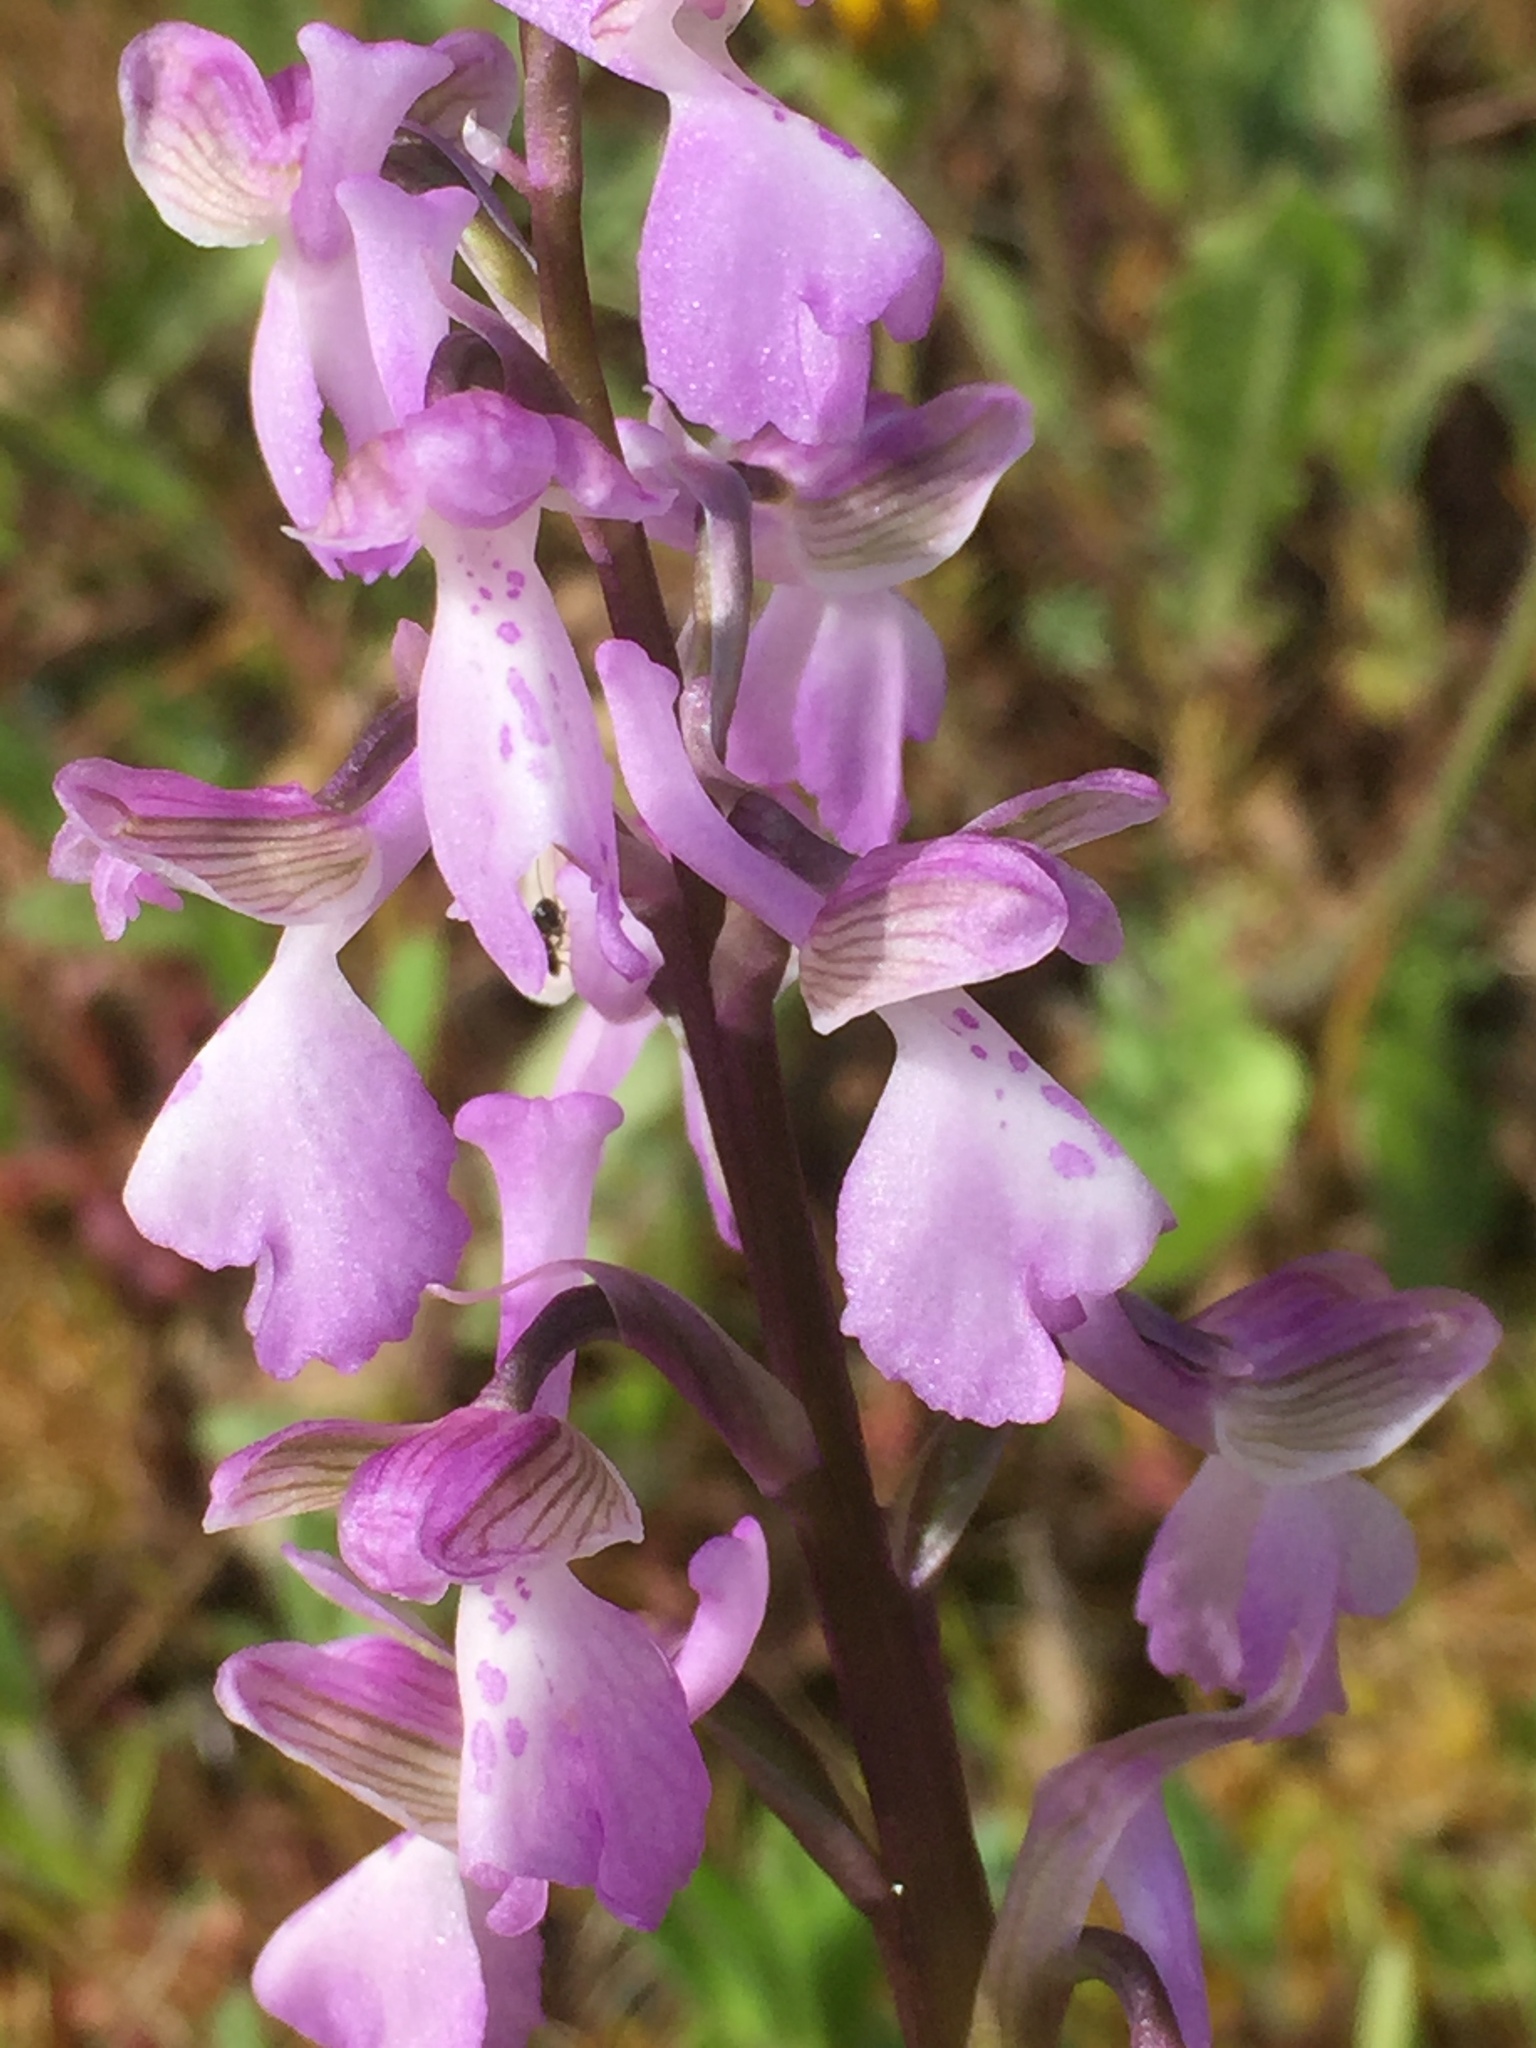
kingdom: Plantae
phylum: Tracheophyta
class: Liliopsida
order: Asparagales
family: Orchidaceae
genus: Anacamptis
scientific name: Anacamptis morio
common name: Green-winged orchid
